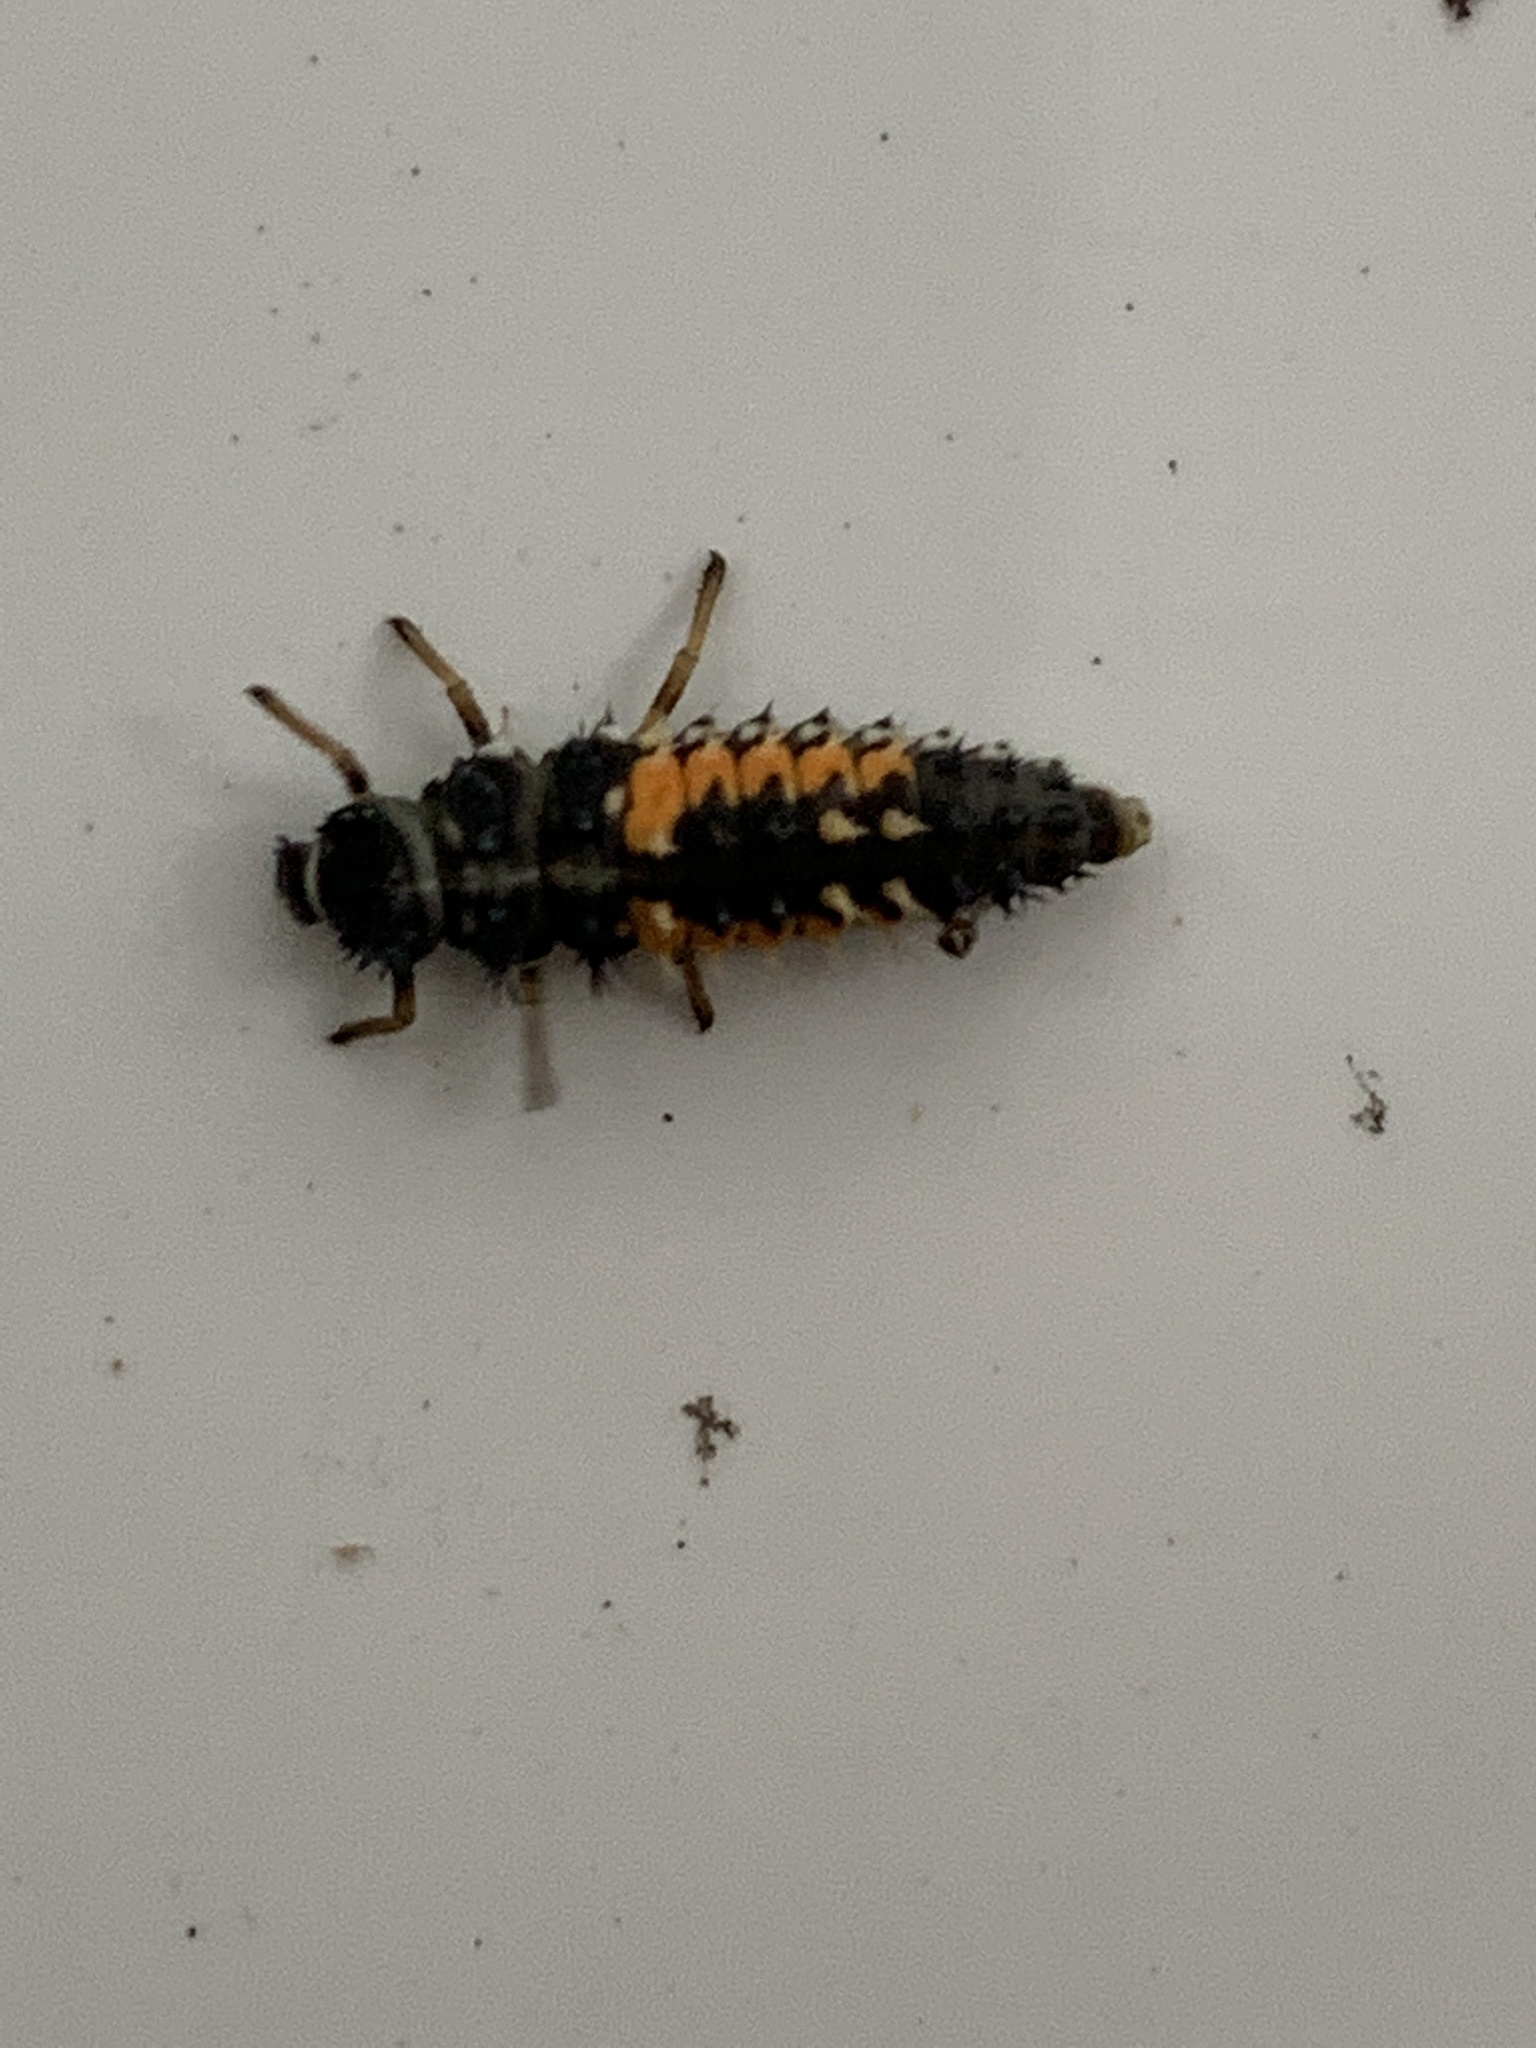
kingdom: Animalia
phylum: Arthropoda
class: Insecta
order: Coleoptera
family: Coccinellidae
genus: Harmonia
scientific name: Harmonia axyridis
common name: Harlequin ladybird
